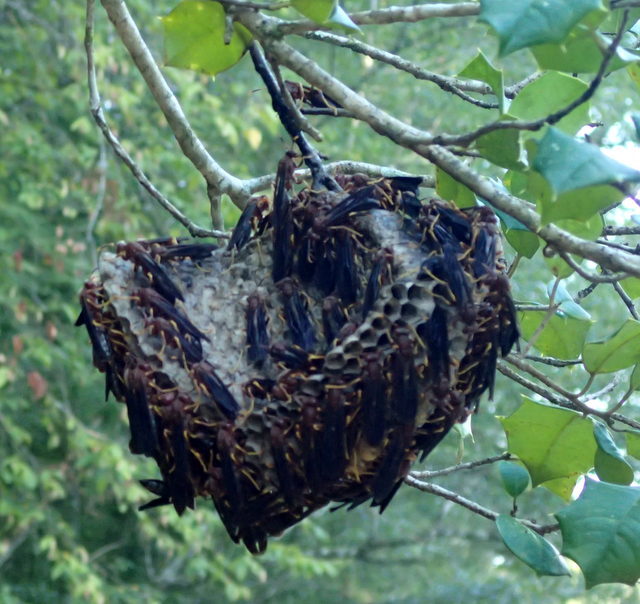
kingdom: Animalia
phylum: Arthropoda
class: Insecta
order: Hymenoptera
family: Eumenidae
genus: Polistes
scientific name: Polistes annularis
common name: Ringed paper wasp
